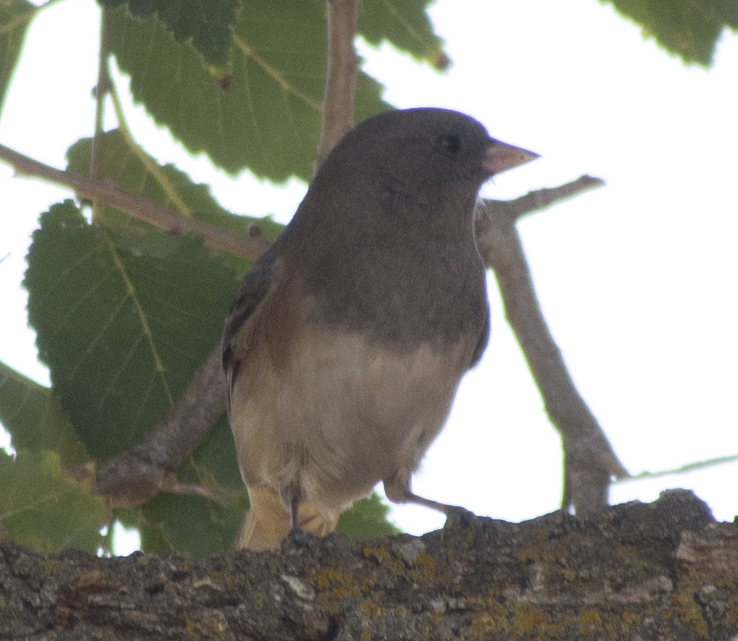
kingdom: Animalia
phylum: Chordata
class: Aves
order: Passeriformes
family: Passerellidae
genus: Junco
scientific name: Junco hyemalis
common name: Dark-eyed junco
